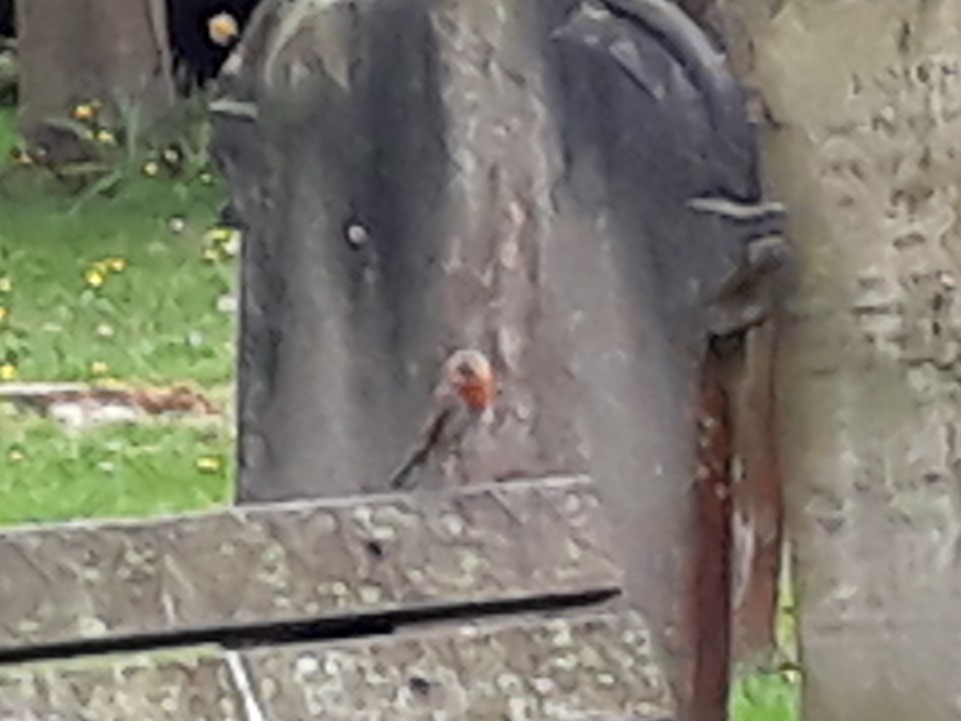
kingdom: Animalia
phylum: Chordata
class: Aves
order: Passeriformes
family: Muscicapidae
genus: Erithacus
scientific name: Erithacus rubecula
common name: European robin
